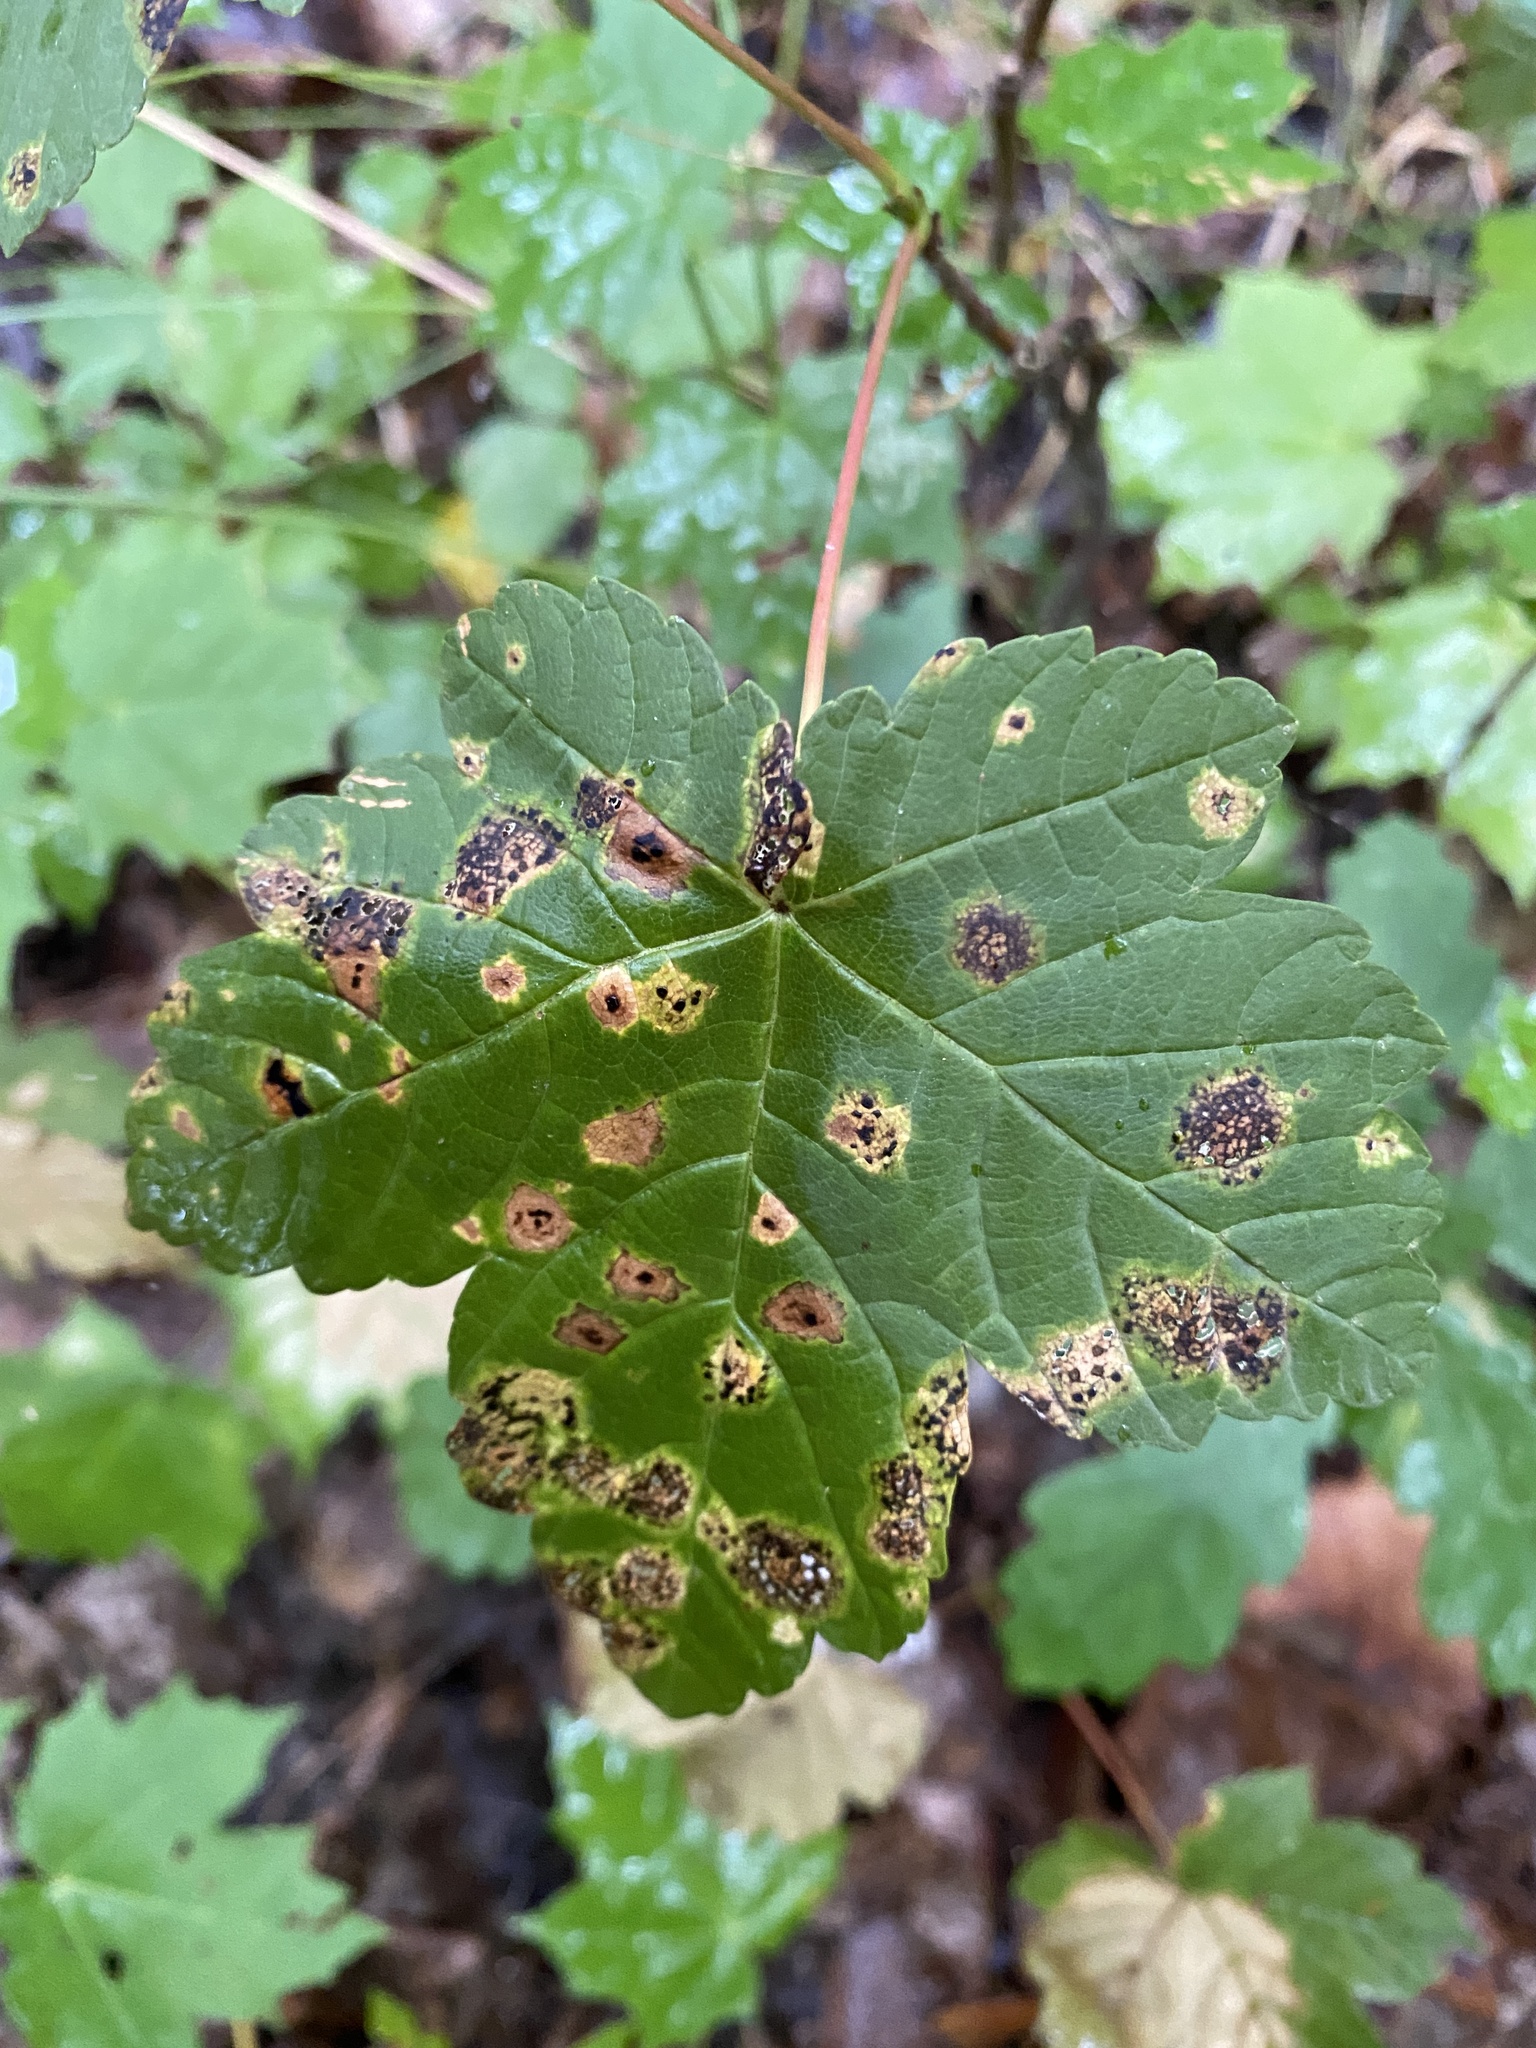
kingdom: Fungi
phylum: Ascomycota
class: Leotiomycetes
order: Rhytismatales
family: Rhytismataceae
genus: Rhytisma
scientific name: Rhytisma acerinum
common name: European tar spot
